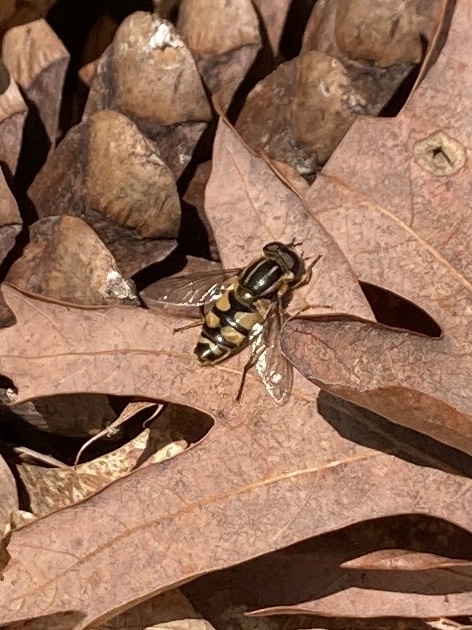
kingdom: Animalia
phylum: Arthropoda
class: Insecta
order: Diptera
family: Syrphidae
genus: Helophilus
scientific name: Helophilus fasciatus
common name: Narrow-headed marsh fly
